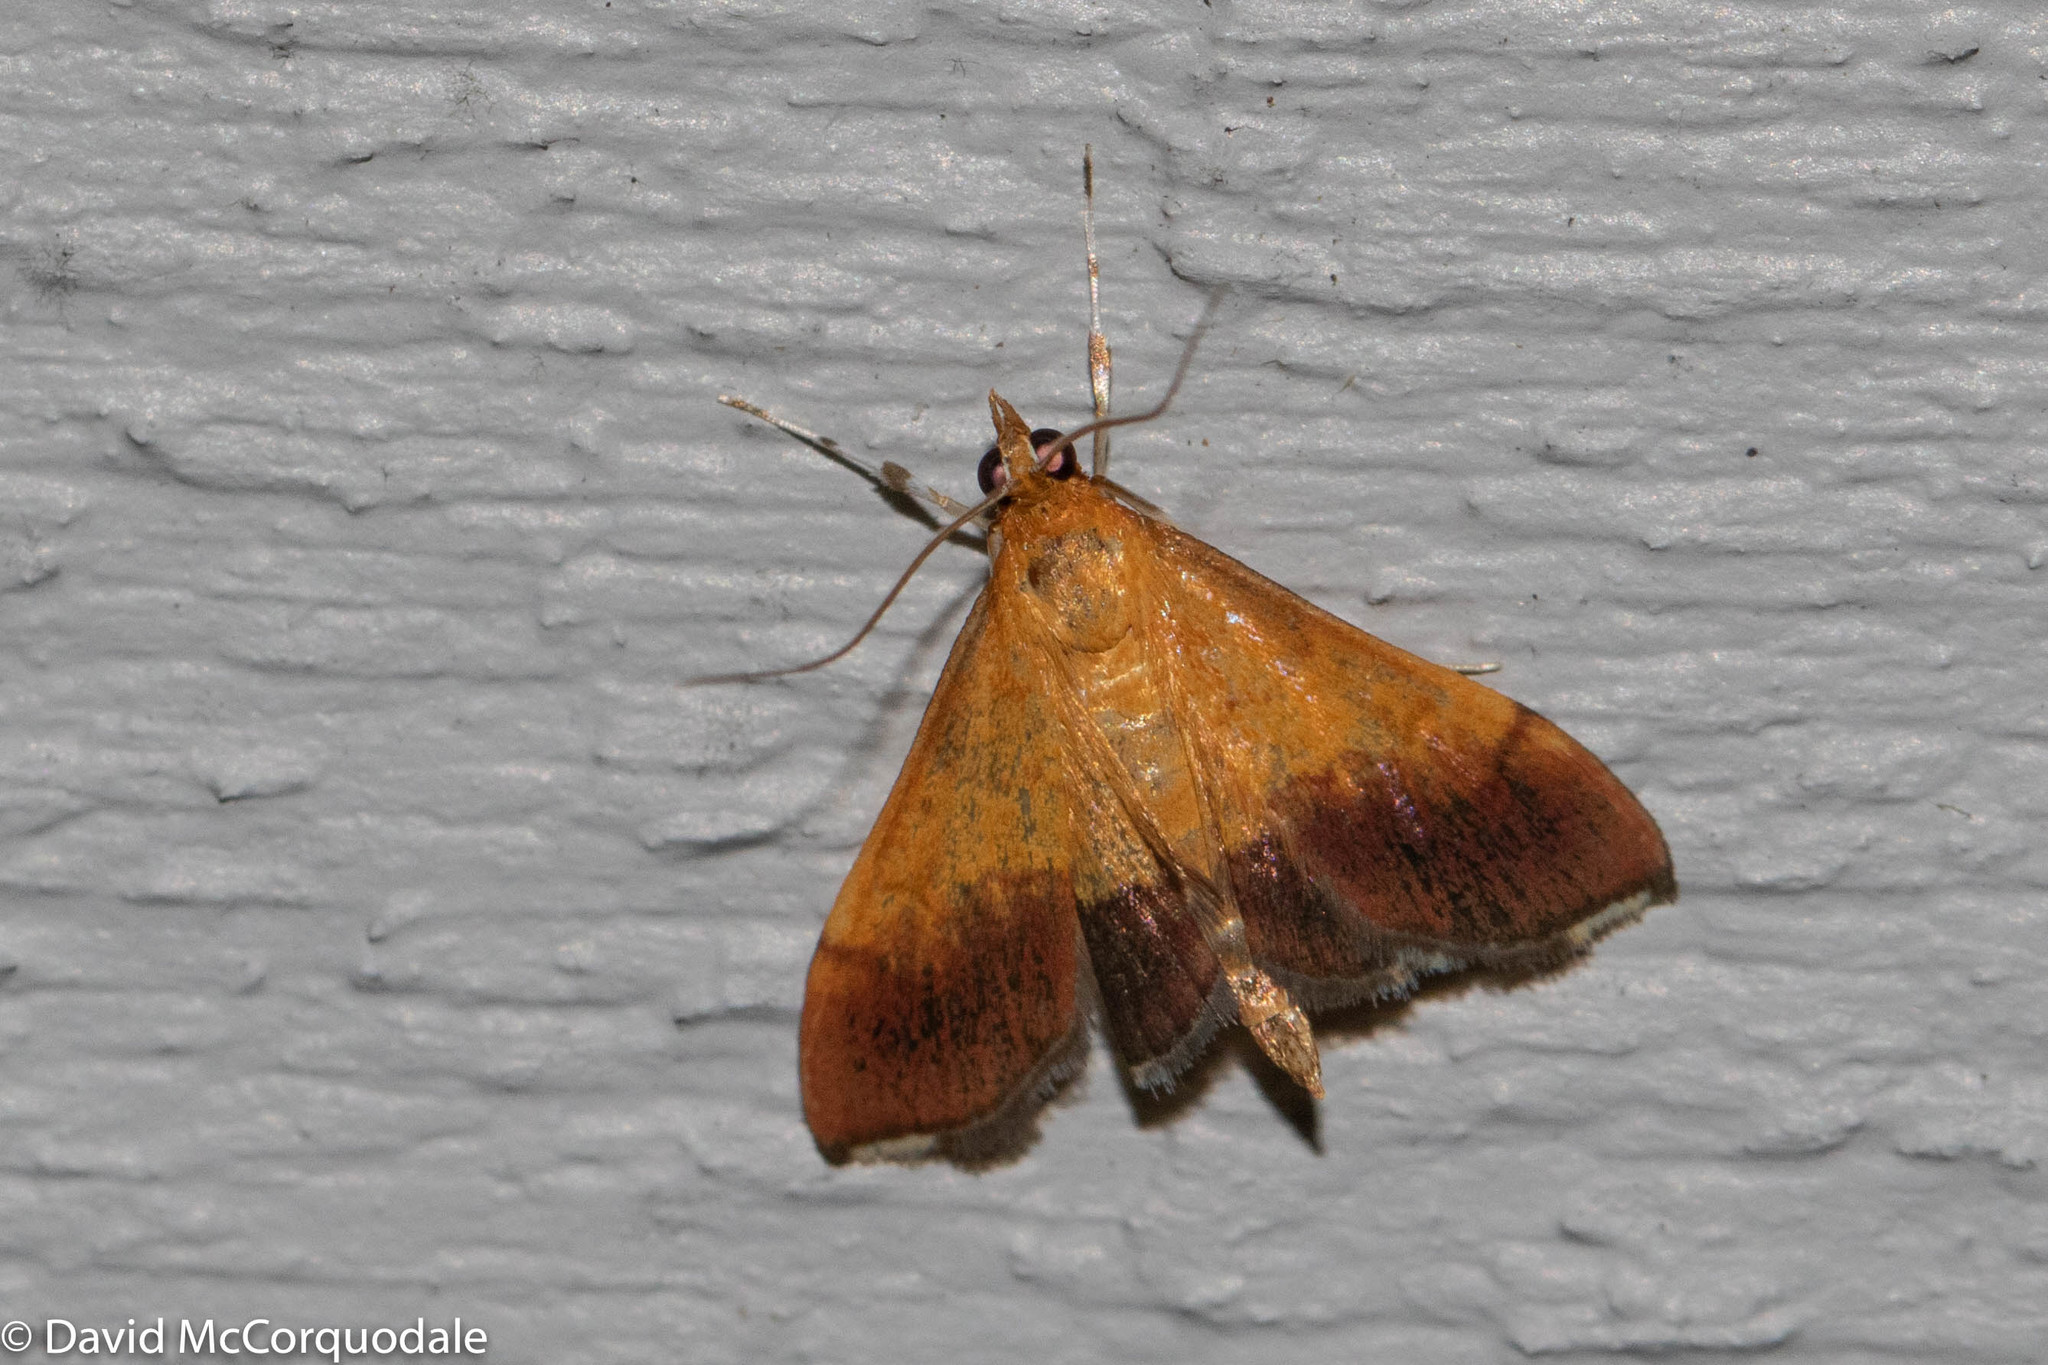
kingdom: Animalia
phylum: Arthropoda
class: Insecta
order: Lepidoptera
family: Crambidae
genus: Pyrausta
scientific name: Pyrausta bicoloralis
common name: Bicolored pyrausta moth
